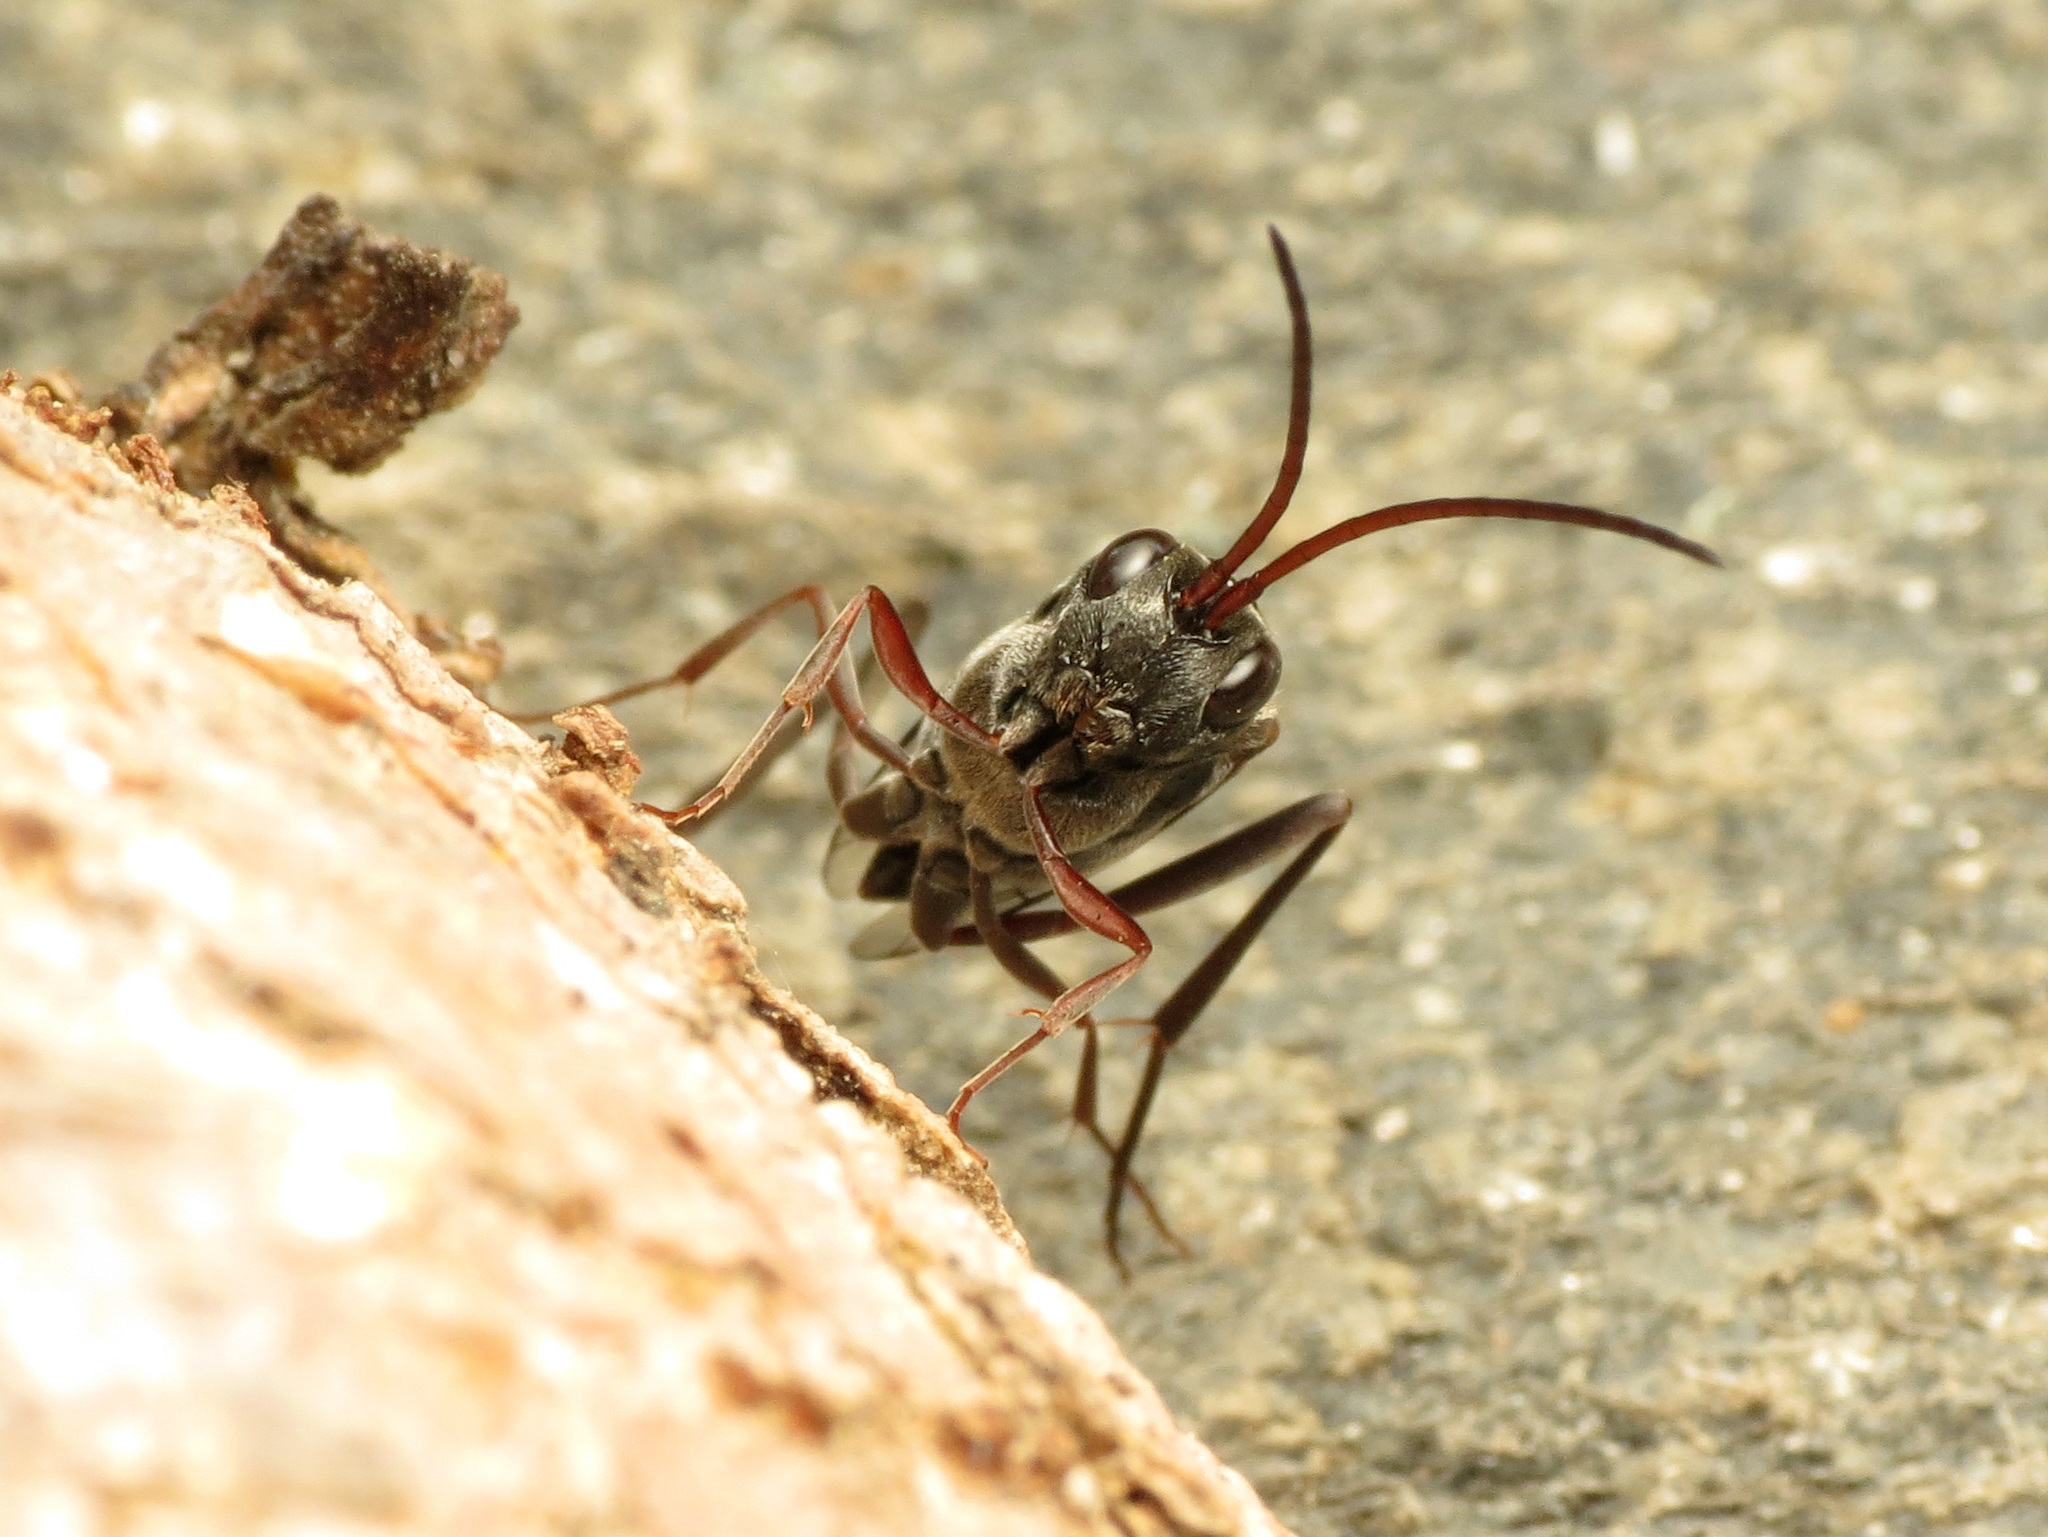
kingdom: Animalia
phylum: Arthropoda
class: Insecta
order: Hymenoptera
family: Evaniidae
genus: Prosevania
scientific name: Prosevania fuscipes
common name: Ensign wasp
